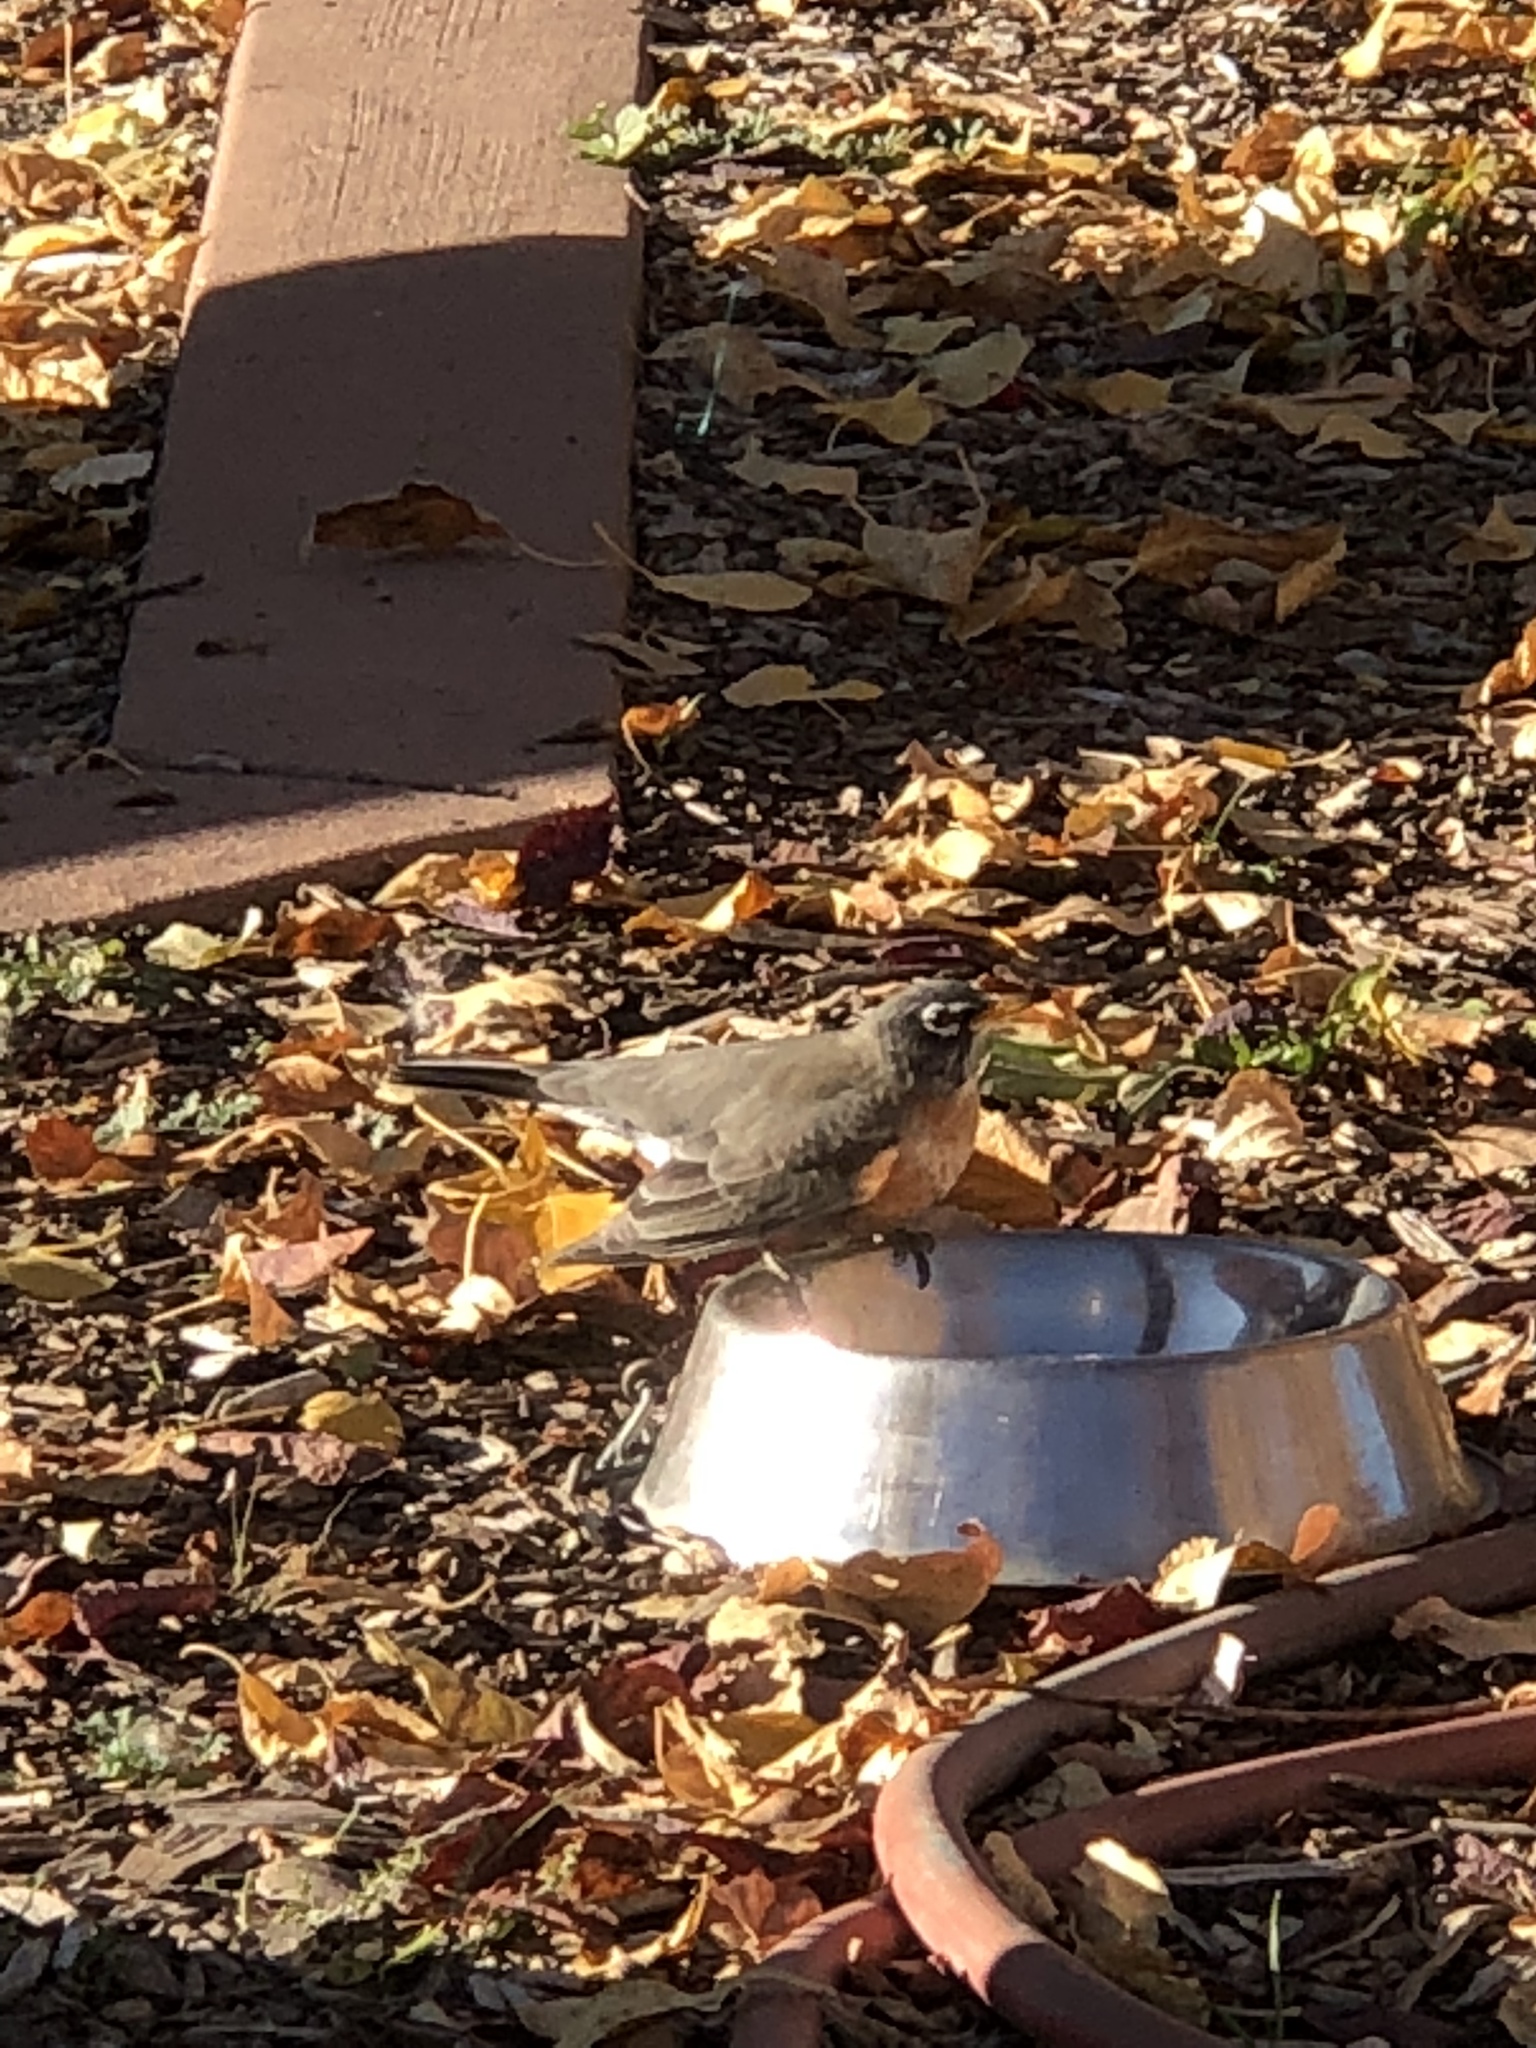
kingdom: Animalia
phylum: Chordata
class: Aves
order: Passeriformes
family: Turdidae
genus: Turdus
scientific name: Turdus migratorius
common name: American robin
